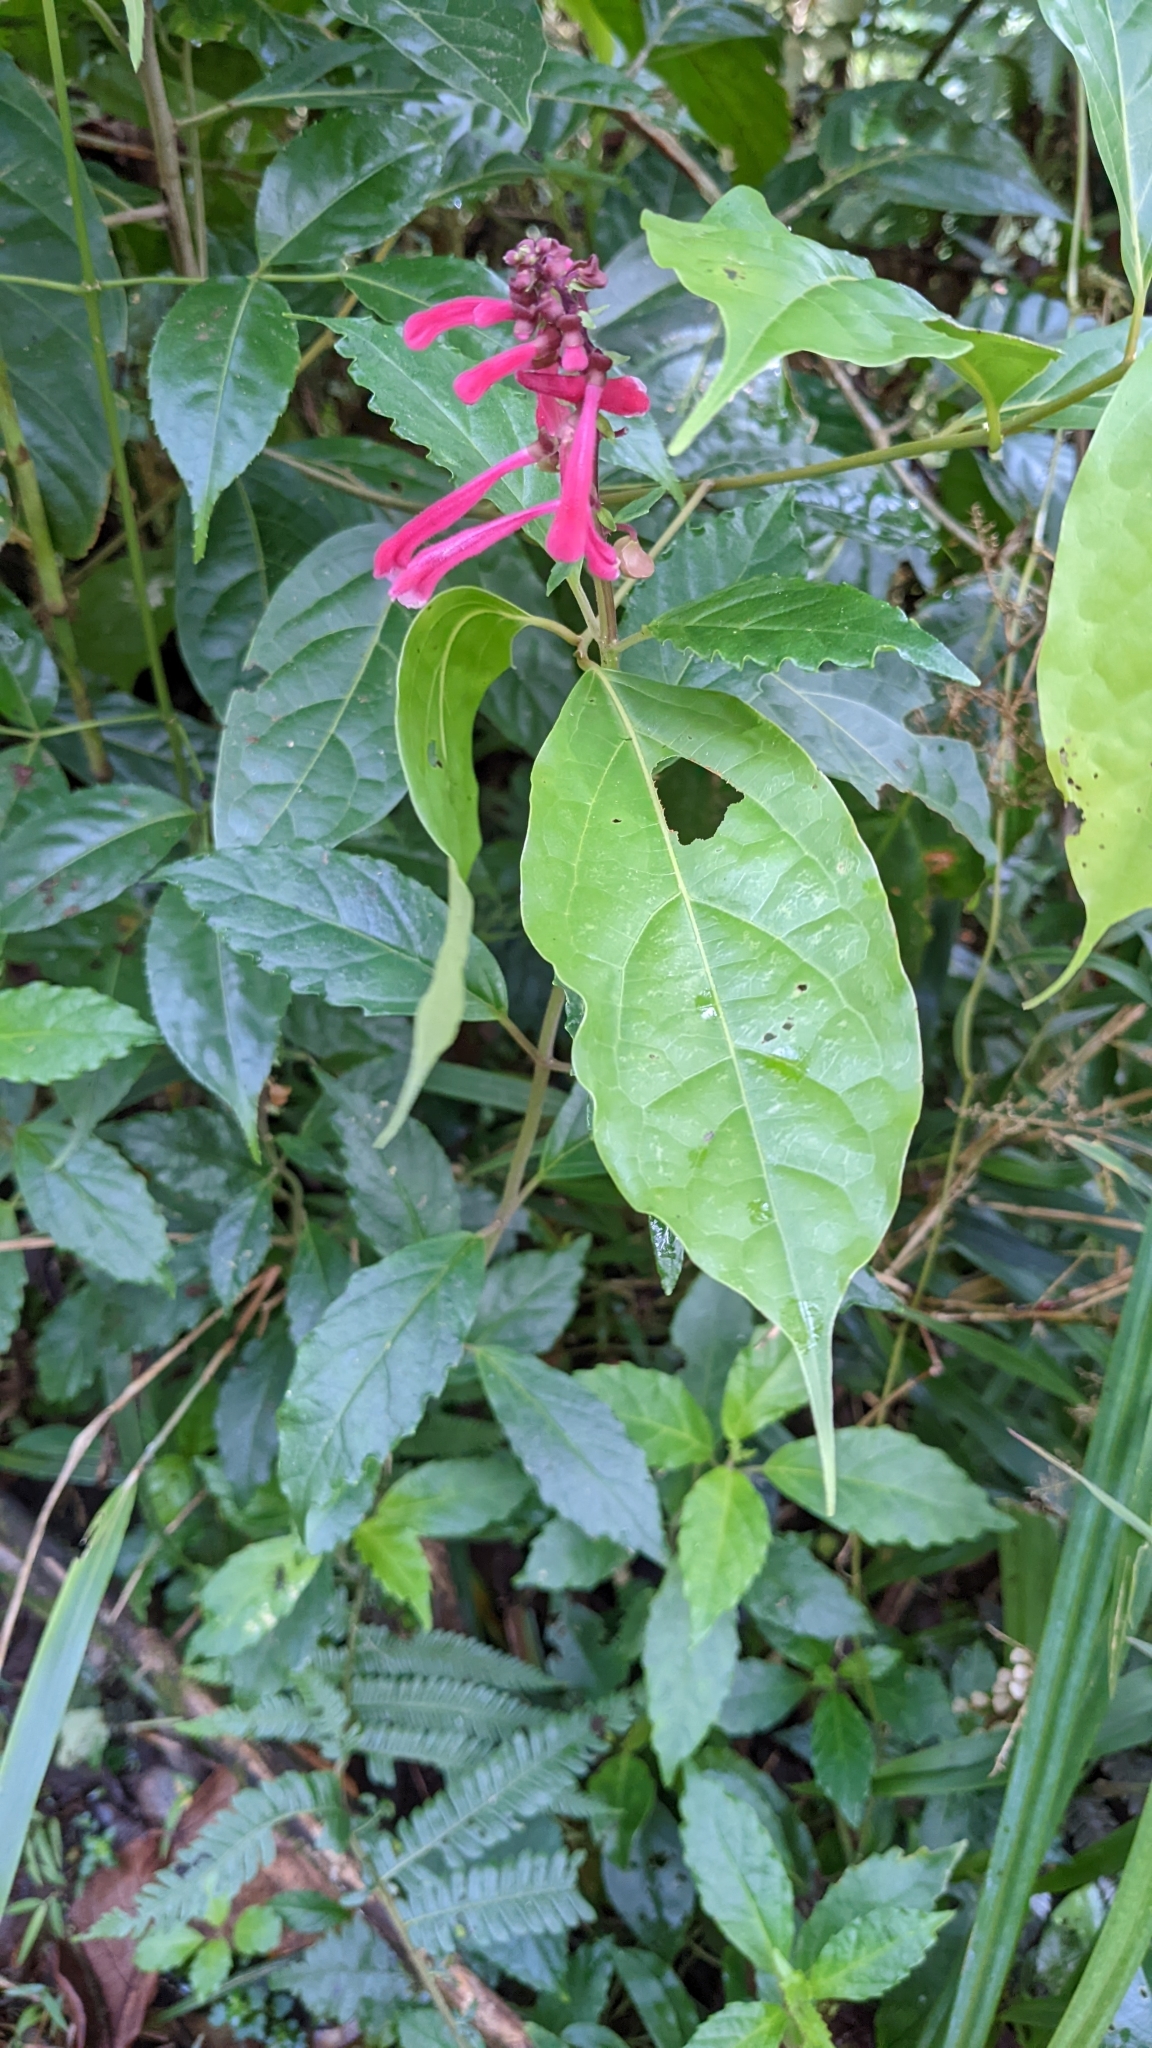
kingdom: Plantae
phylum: Tracheophyta
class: Magnoliopsida
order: Lamiales
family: Lamiaceae
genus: Scutellaria
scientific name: Scutellaria isocheila
